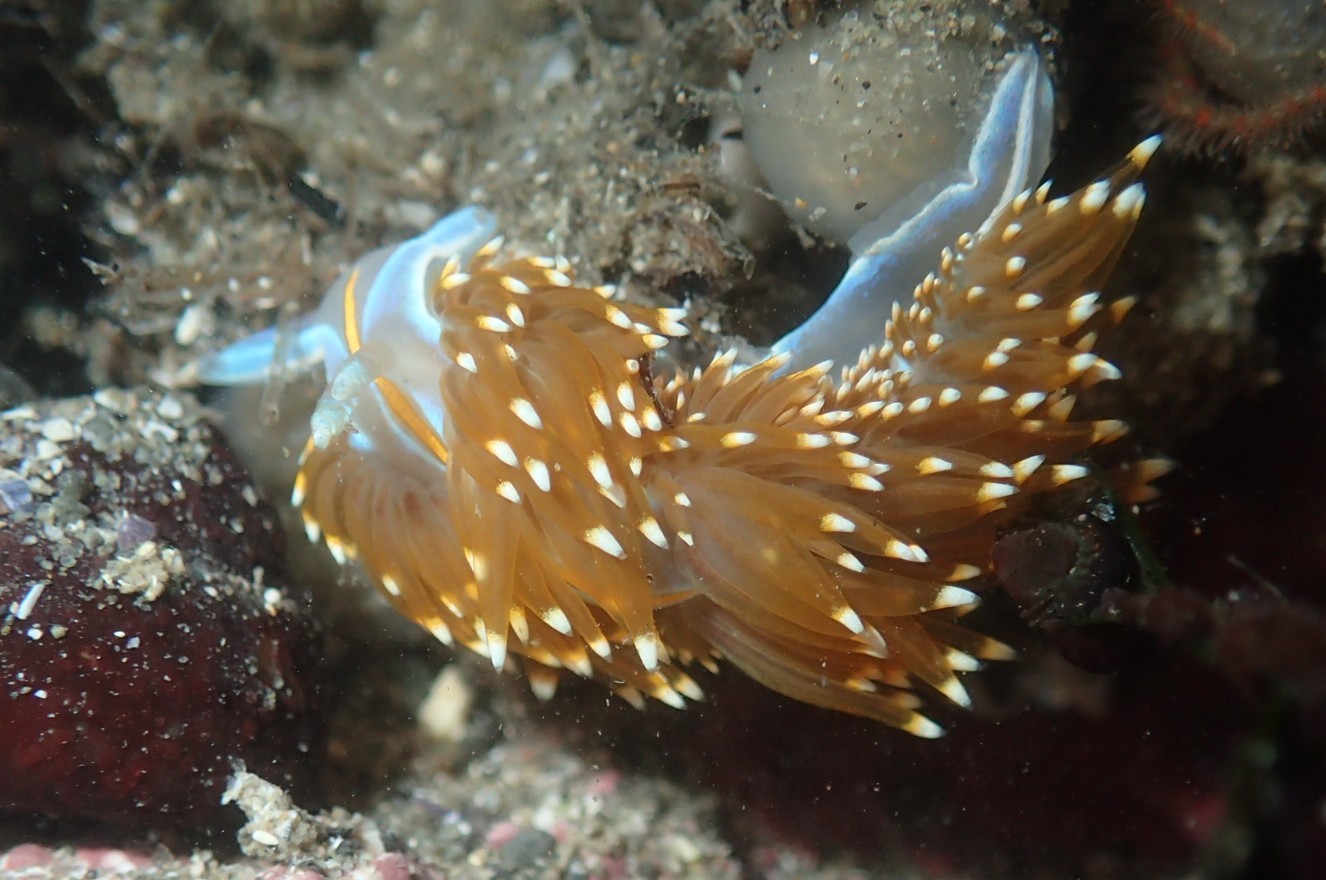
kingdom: Animalia
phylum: Mollusca
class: Gastropoda
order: Nudibranchia
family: Myrrhinidae
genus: Hermissenda
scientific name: Hermissenda opalescens
